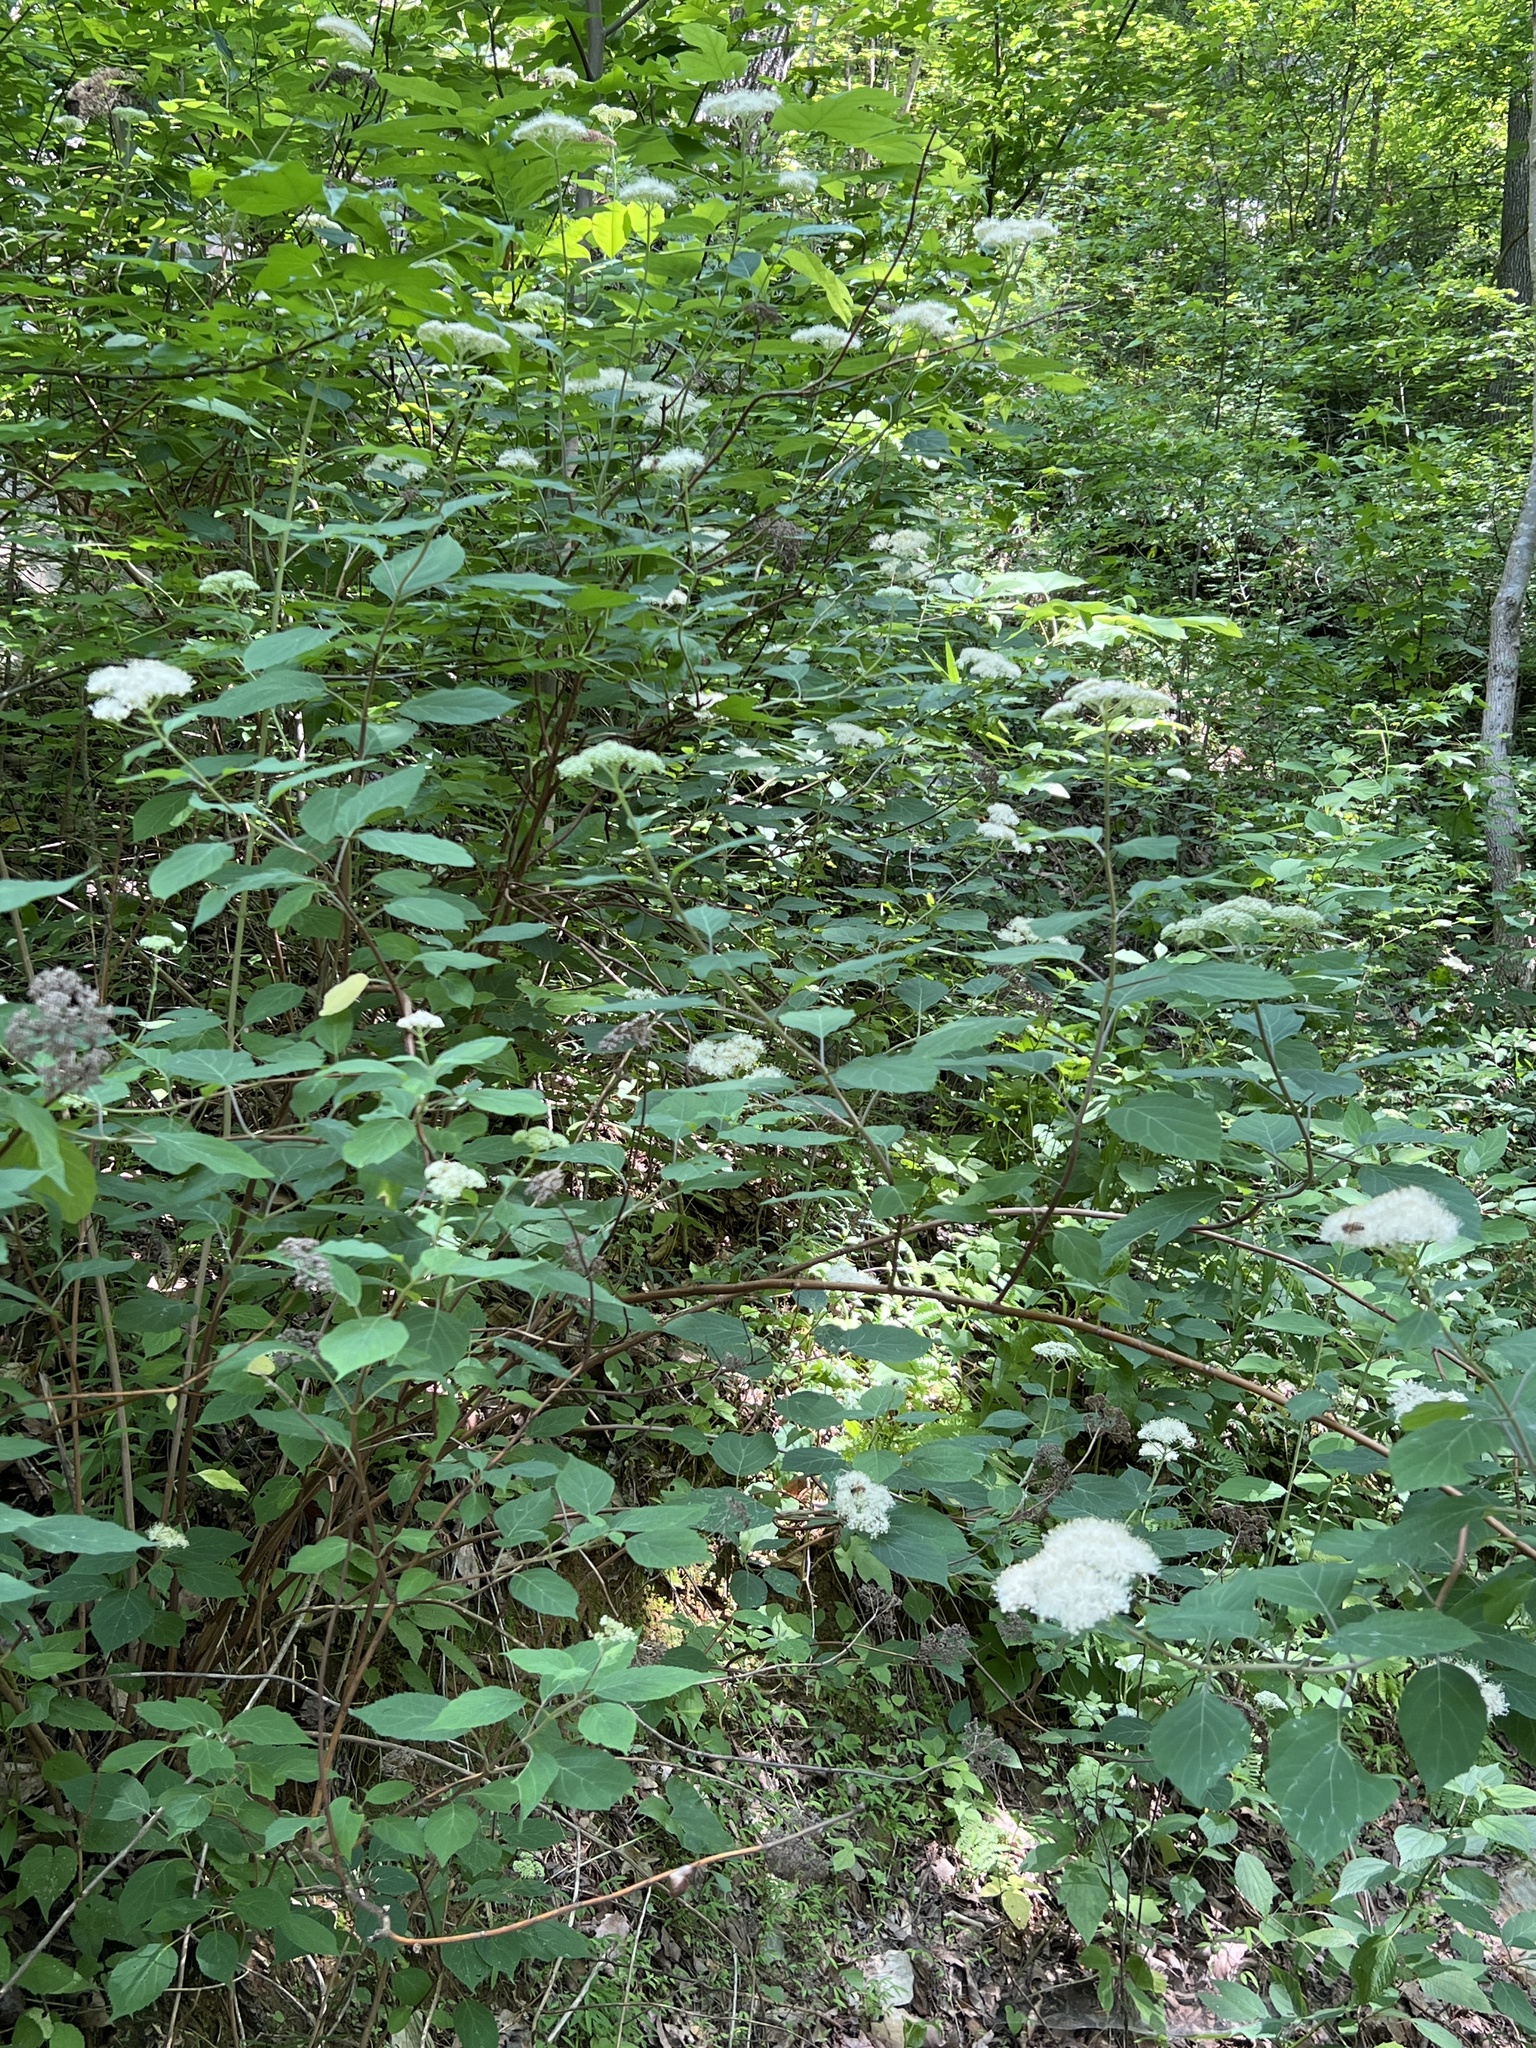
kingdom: Plantae
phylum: Tracheophyta
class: Magnoliopsida
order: Cornales
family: Hydrangeaceae
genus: Hydrangea
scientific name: Hydrangea arborescens
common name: Sevenbark
